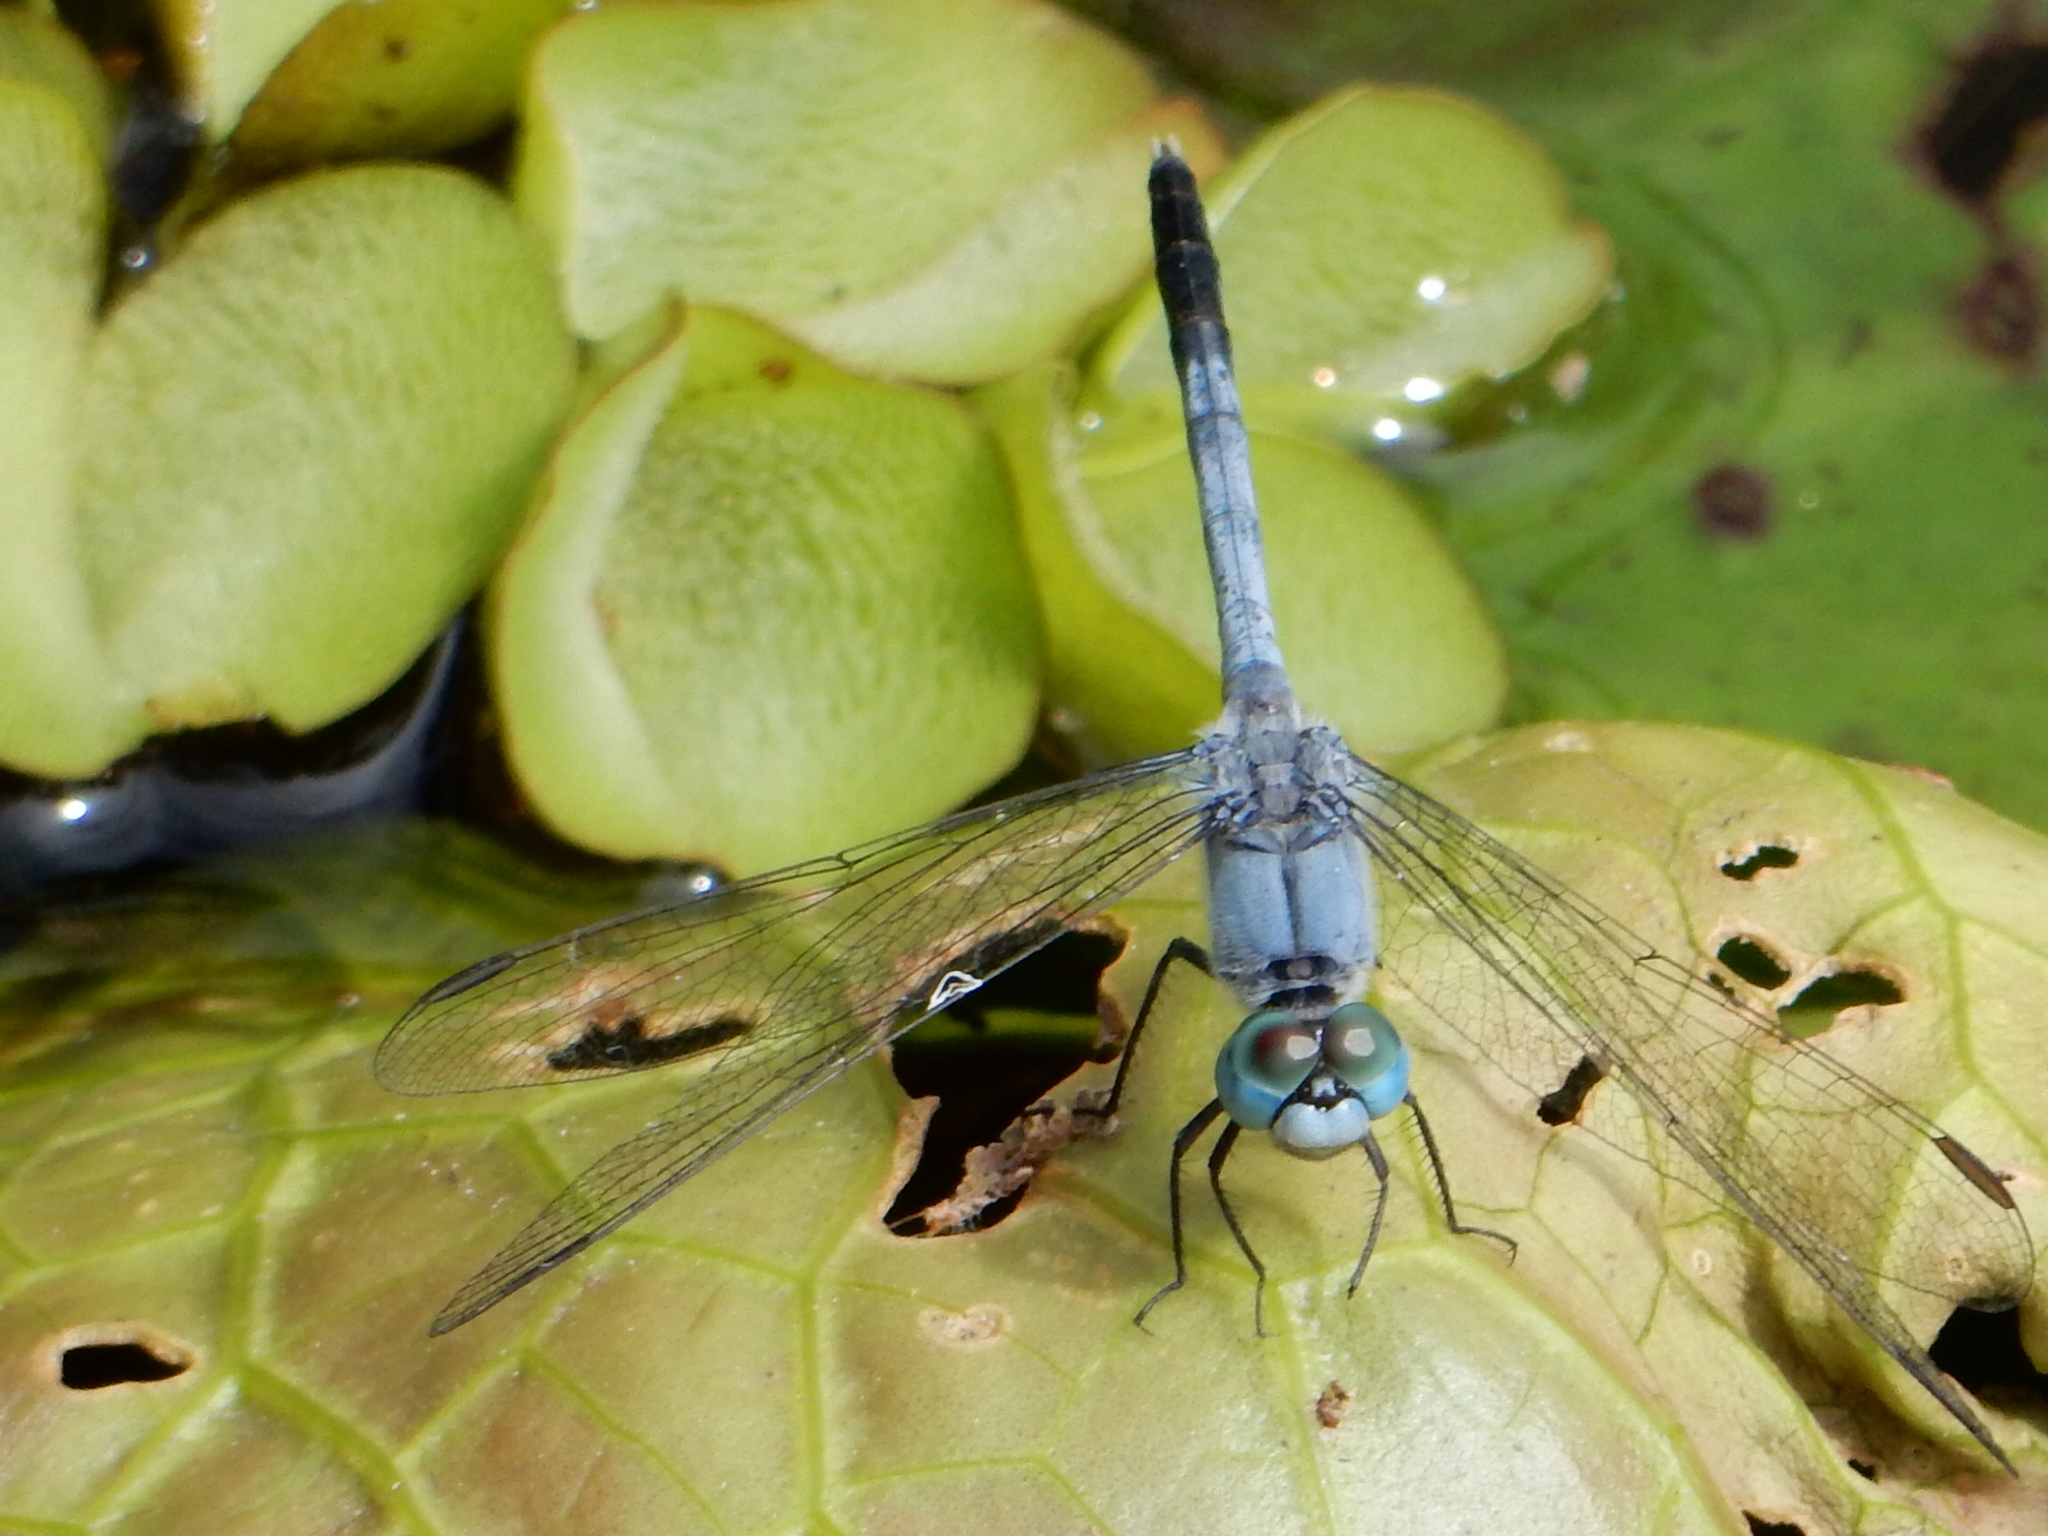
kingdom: Animalia
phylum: Arthropoda
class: Insecta
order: Odonata
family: Libellulidae
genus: Diplacodes
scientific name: Diplacodes trivialis
